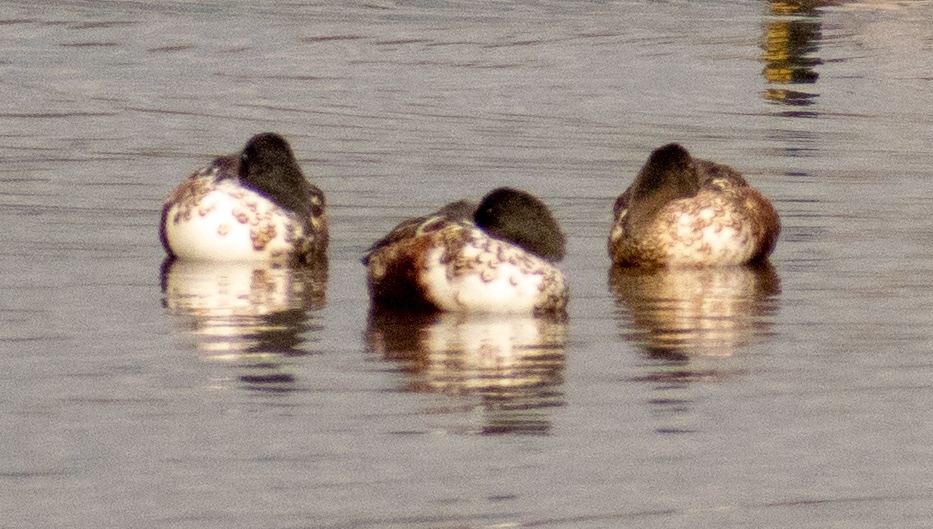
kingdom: Animalia
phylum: Chordata
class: Aves
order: Anseriformes
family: Anatidae
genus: Spatula
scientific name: Spatula clypeata
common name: Northern shoveler
